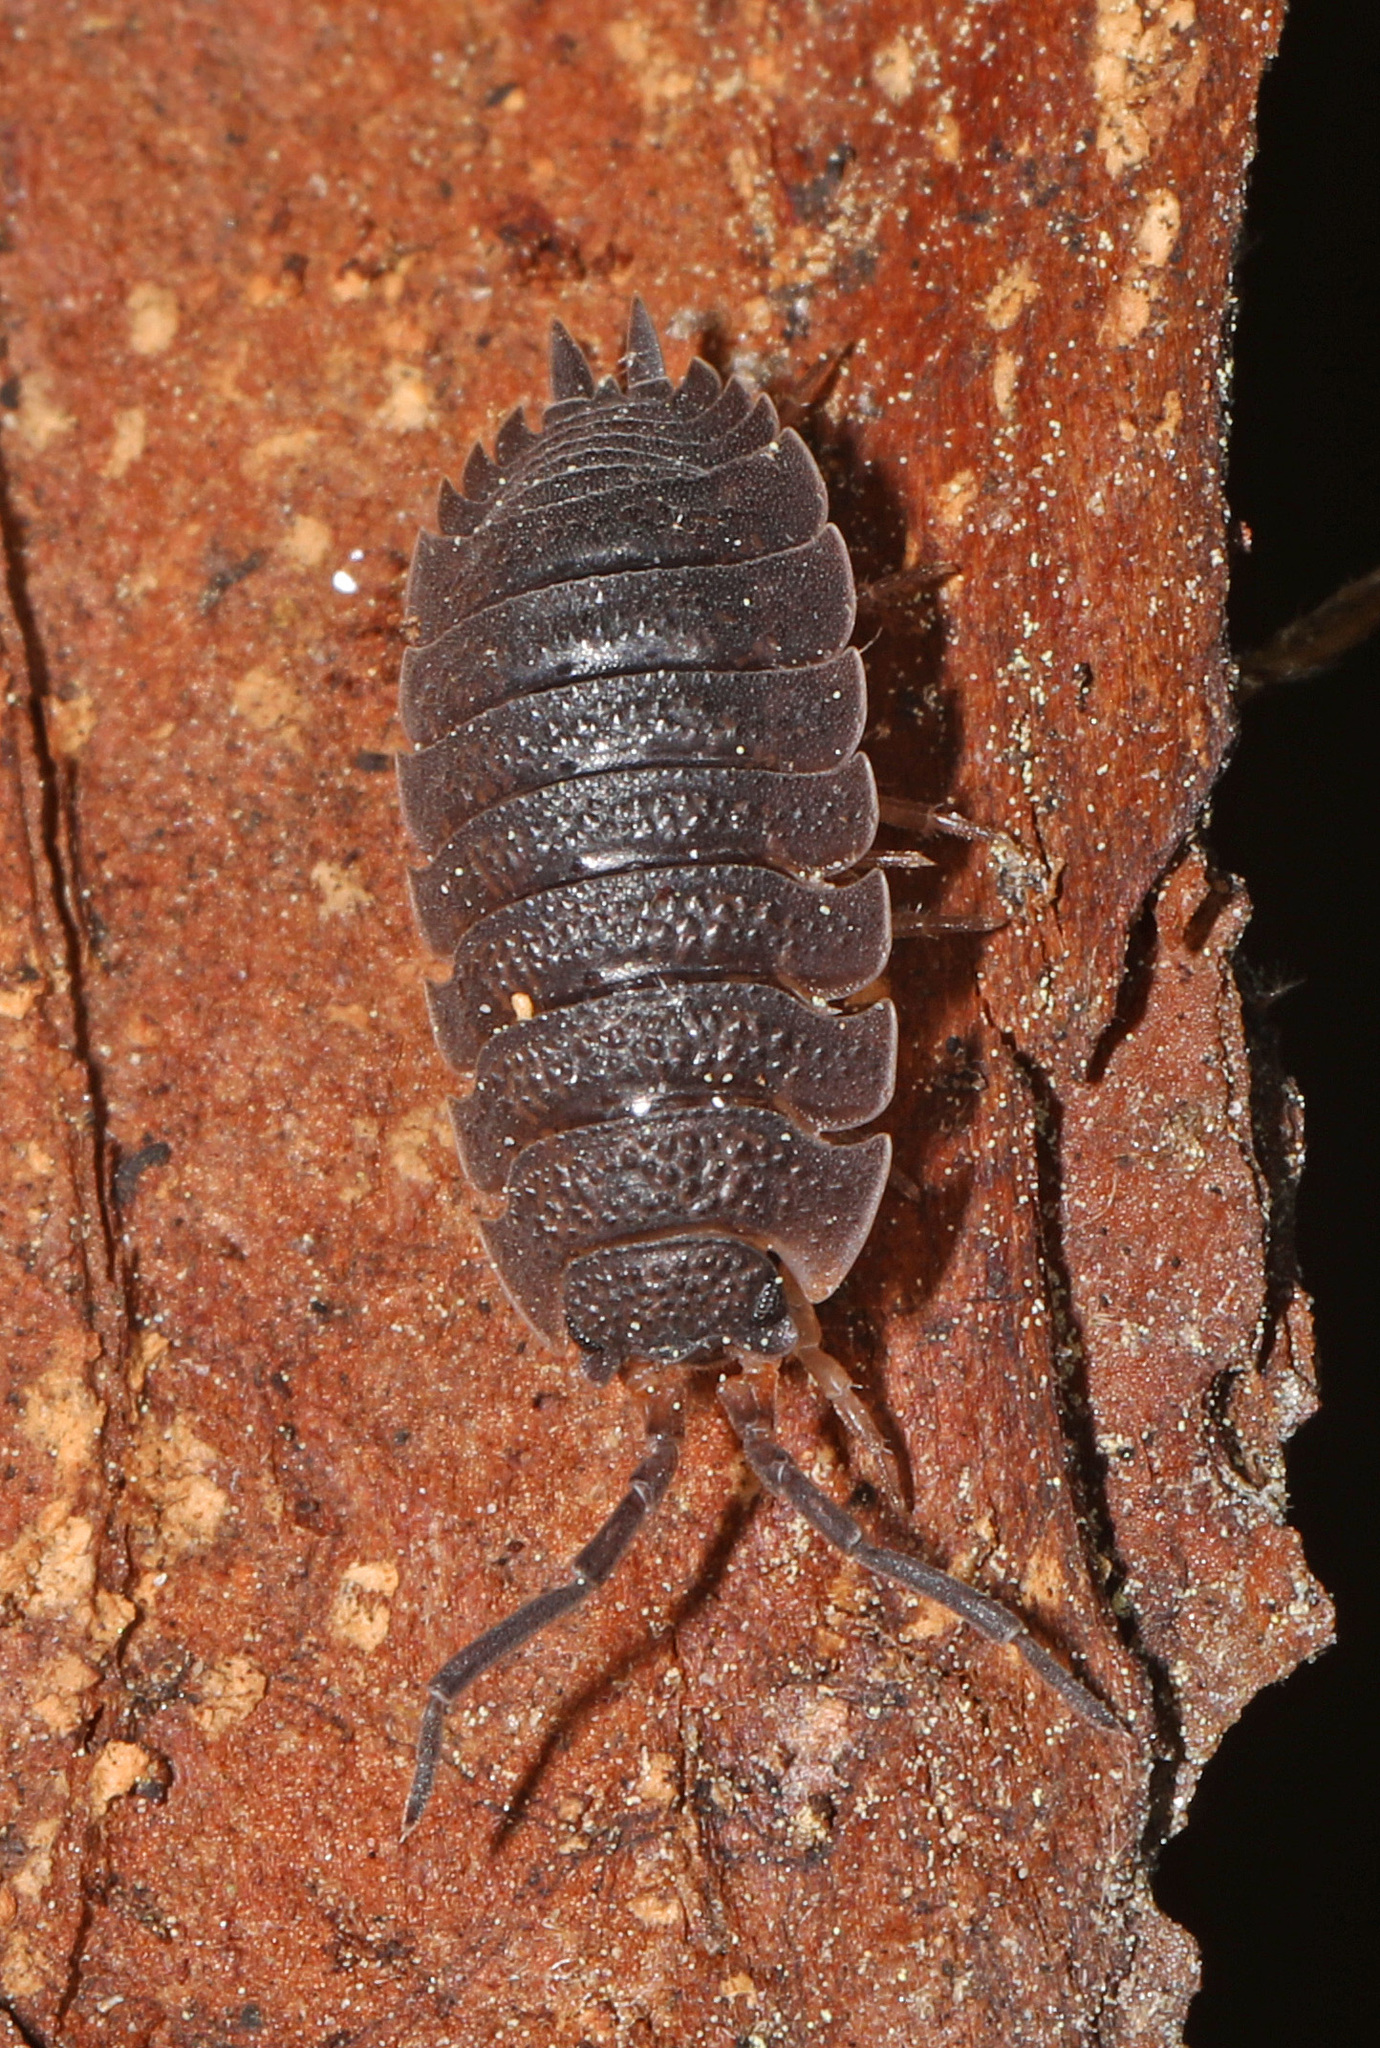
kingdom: Animalia
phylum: Arthropoda
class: Malacostraca
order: Isopoda
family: Porcellionidae
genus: Porcellio
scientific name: Porcellio scaber
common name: Common rough woodlouse
